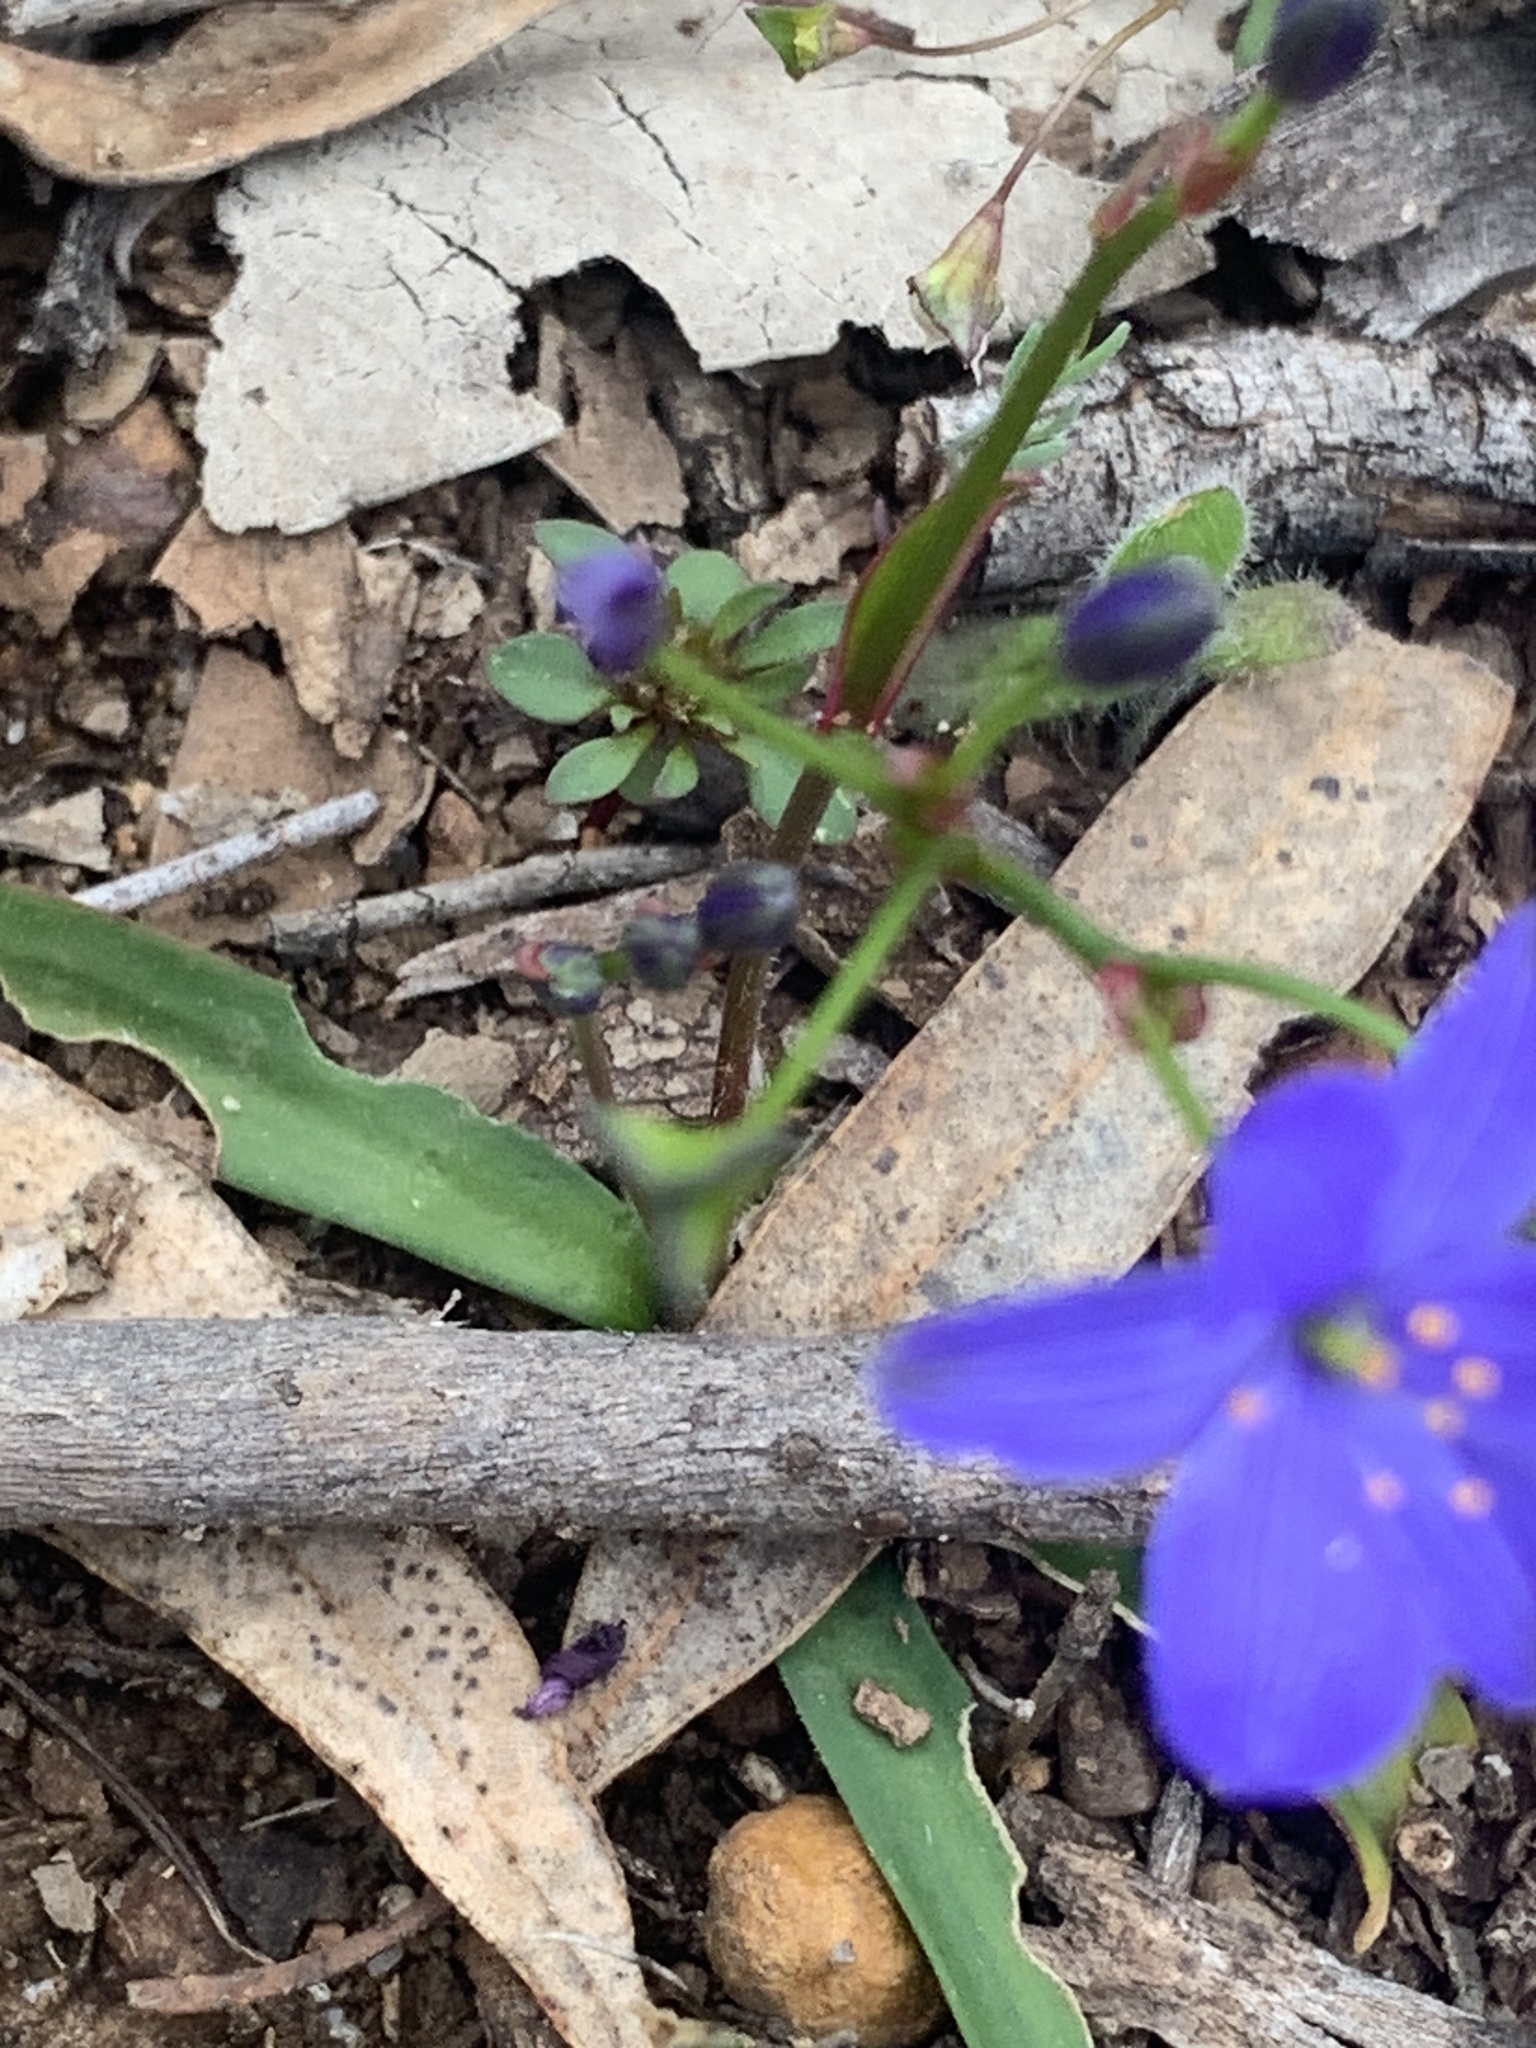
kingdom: Plantae
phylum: Tracheophyta
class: Liliopsida
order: Asparagales
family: Asphodelaceae
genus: Chamaescilla
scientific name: Chamaescilla corymbosa
